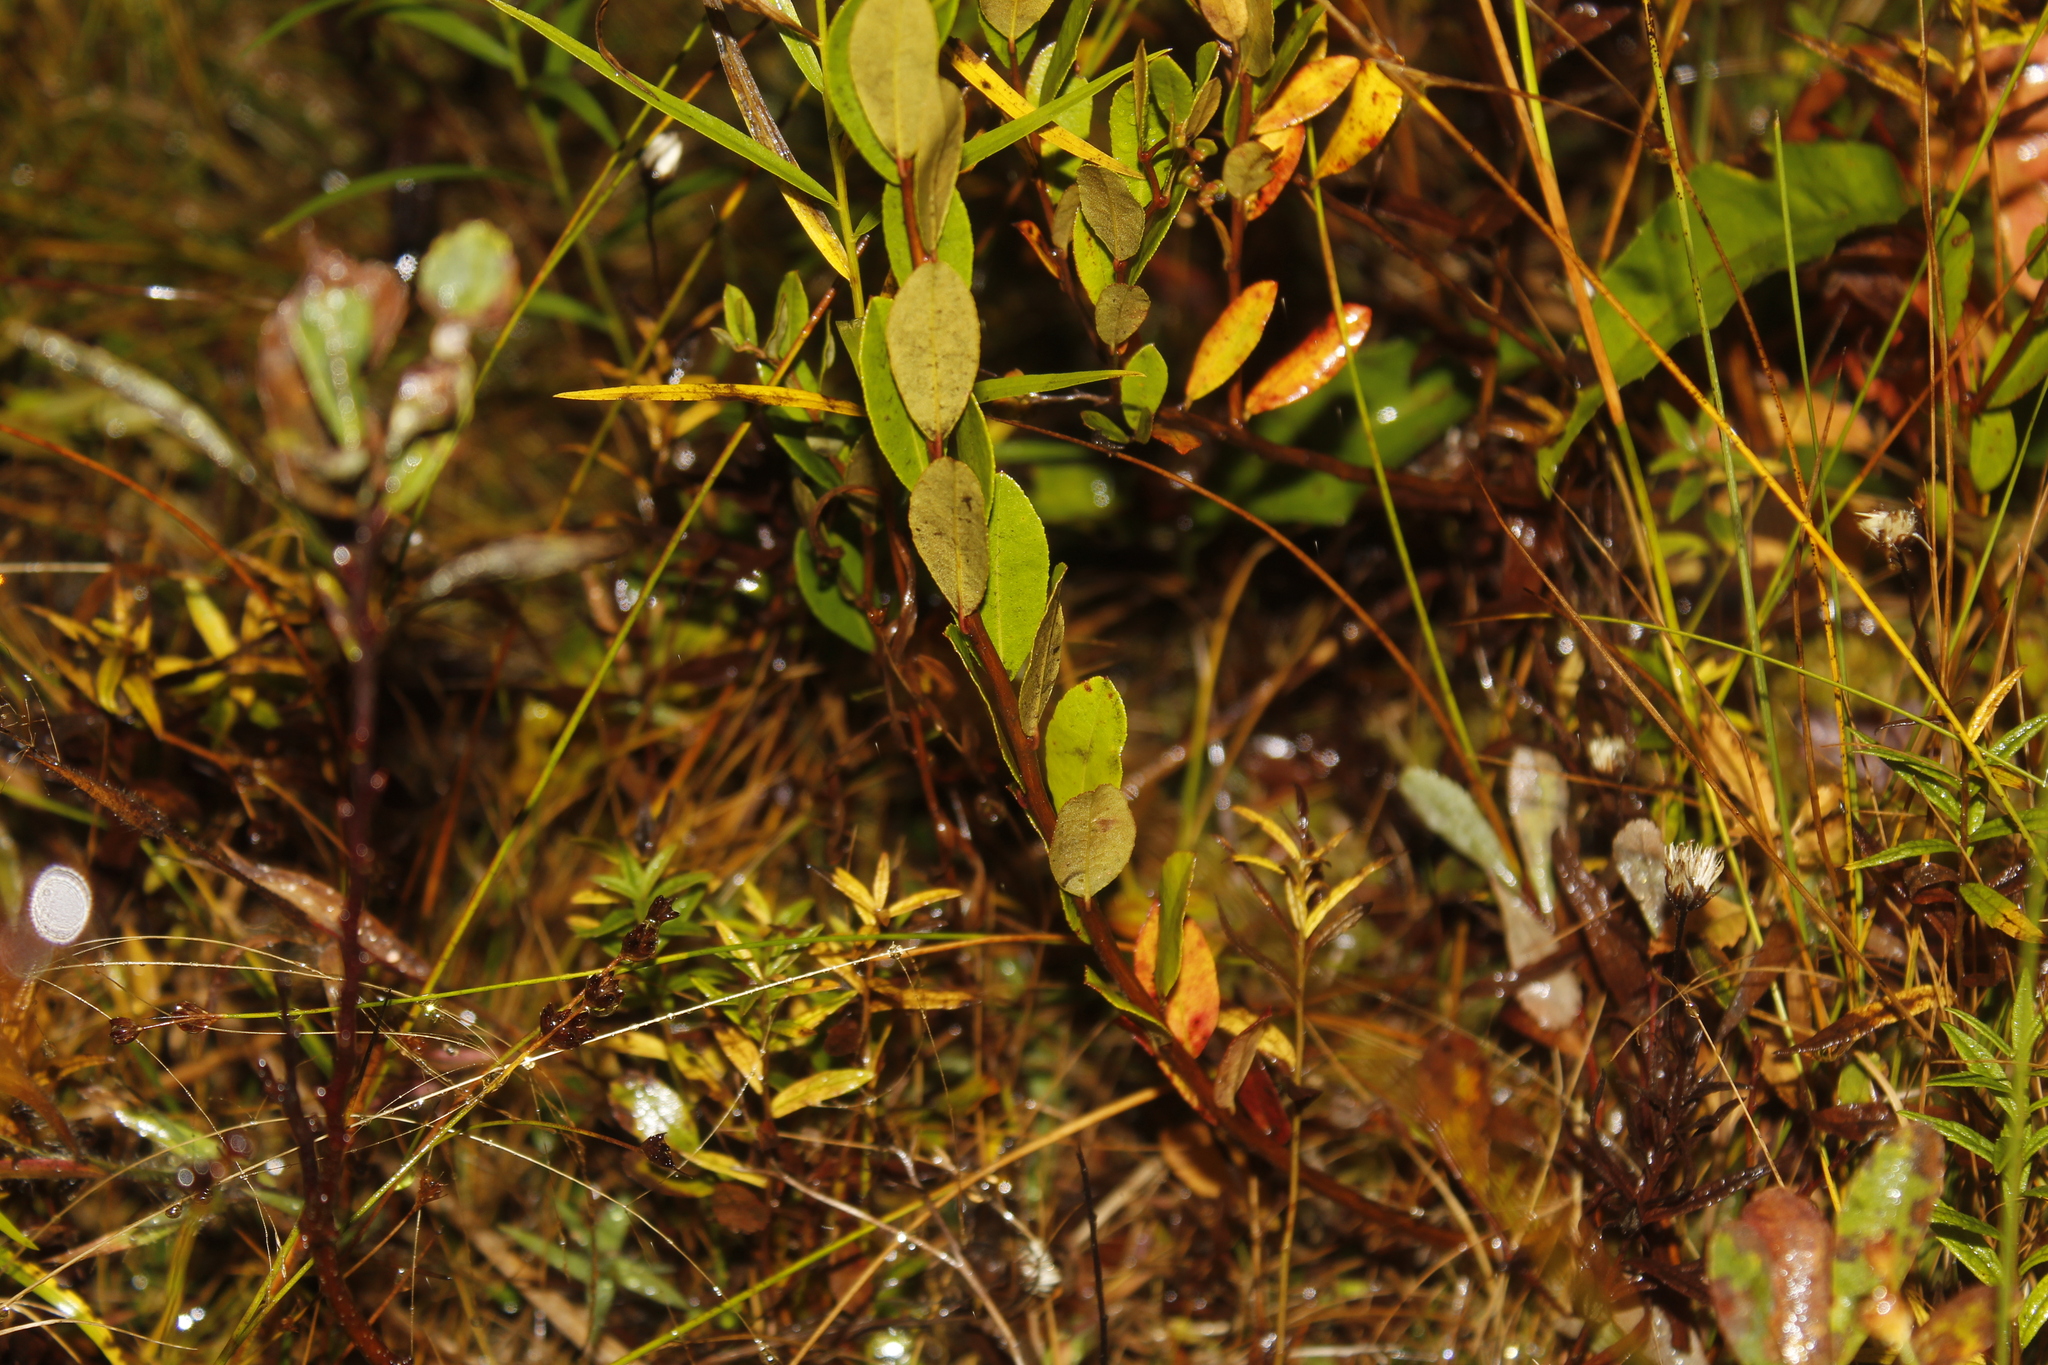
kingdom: Plantae
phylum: Tracheophyta
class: Magnoliopsida
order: Ericales
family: Ericaceae
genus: Chamaedaphne
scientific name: Chamaedaphne calyculata
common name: Leatherleaf
